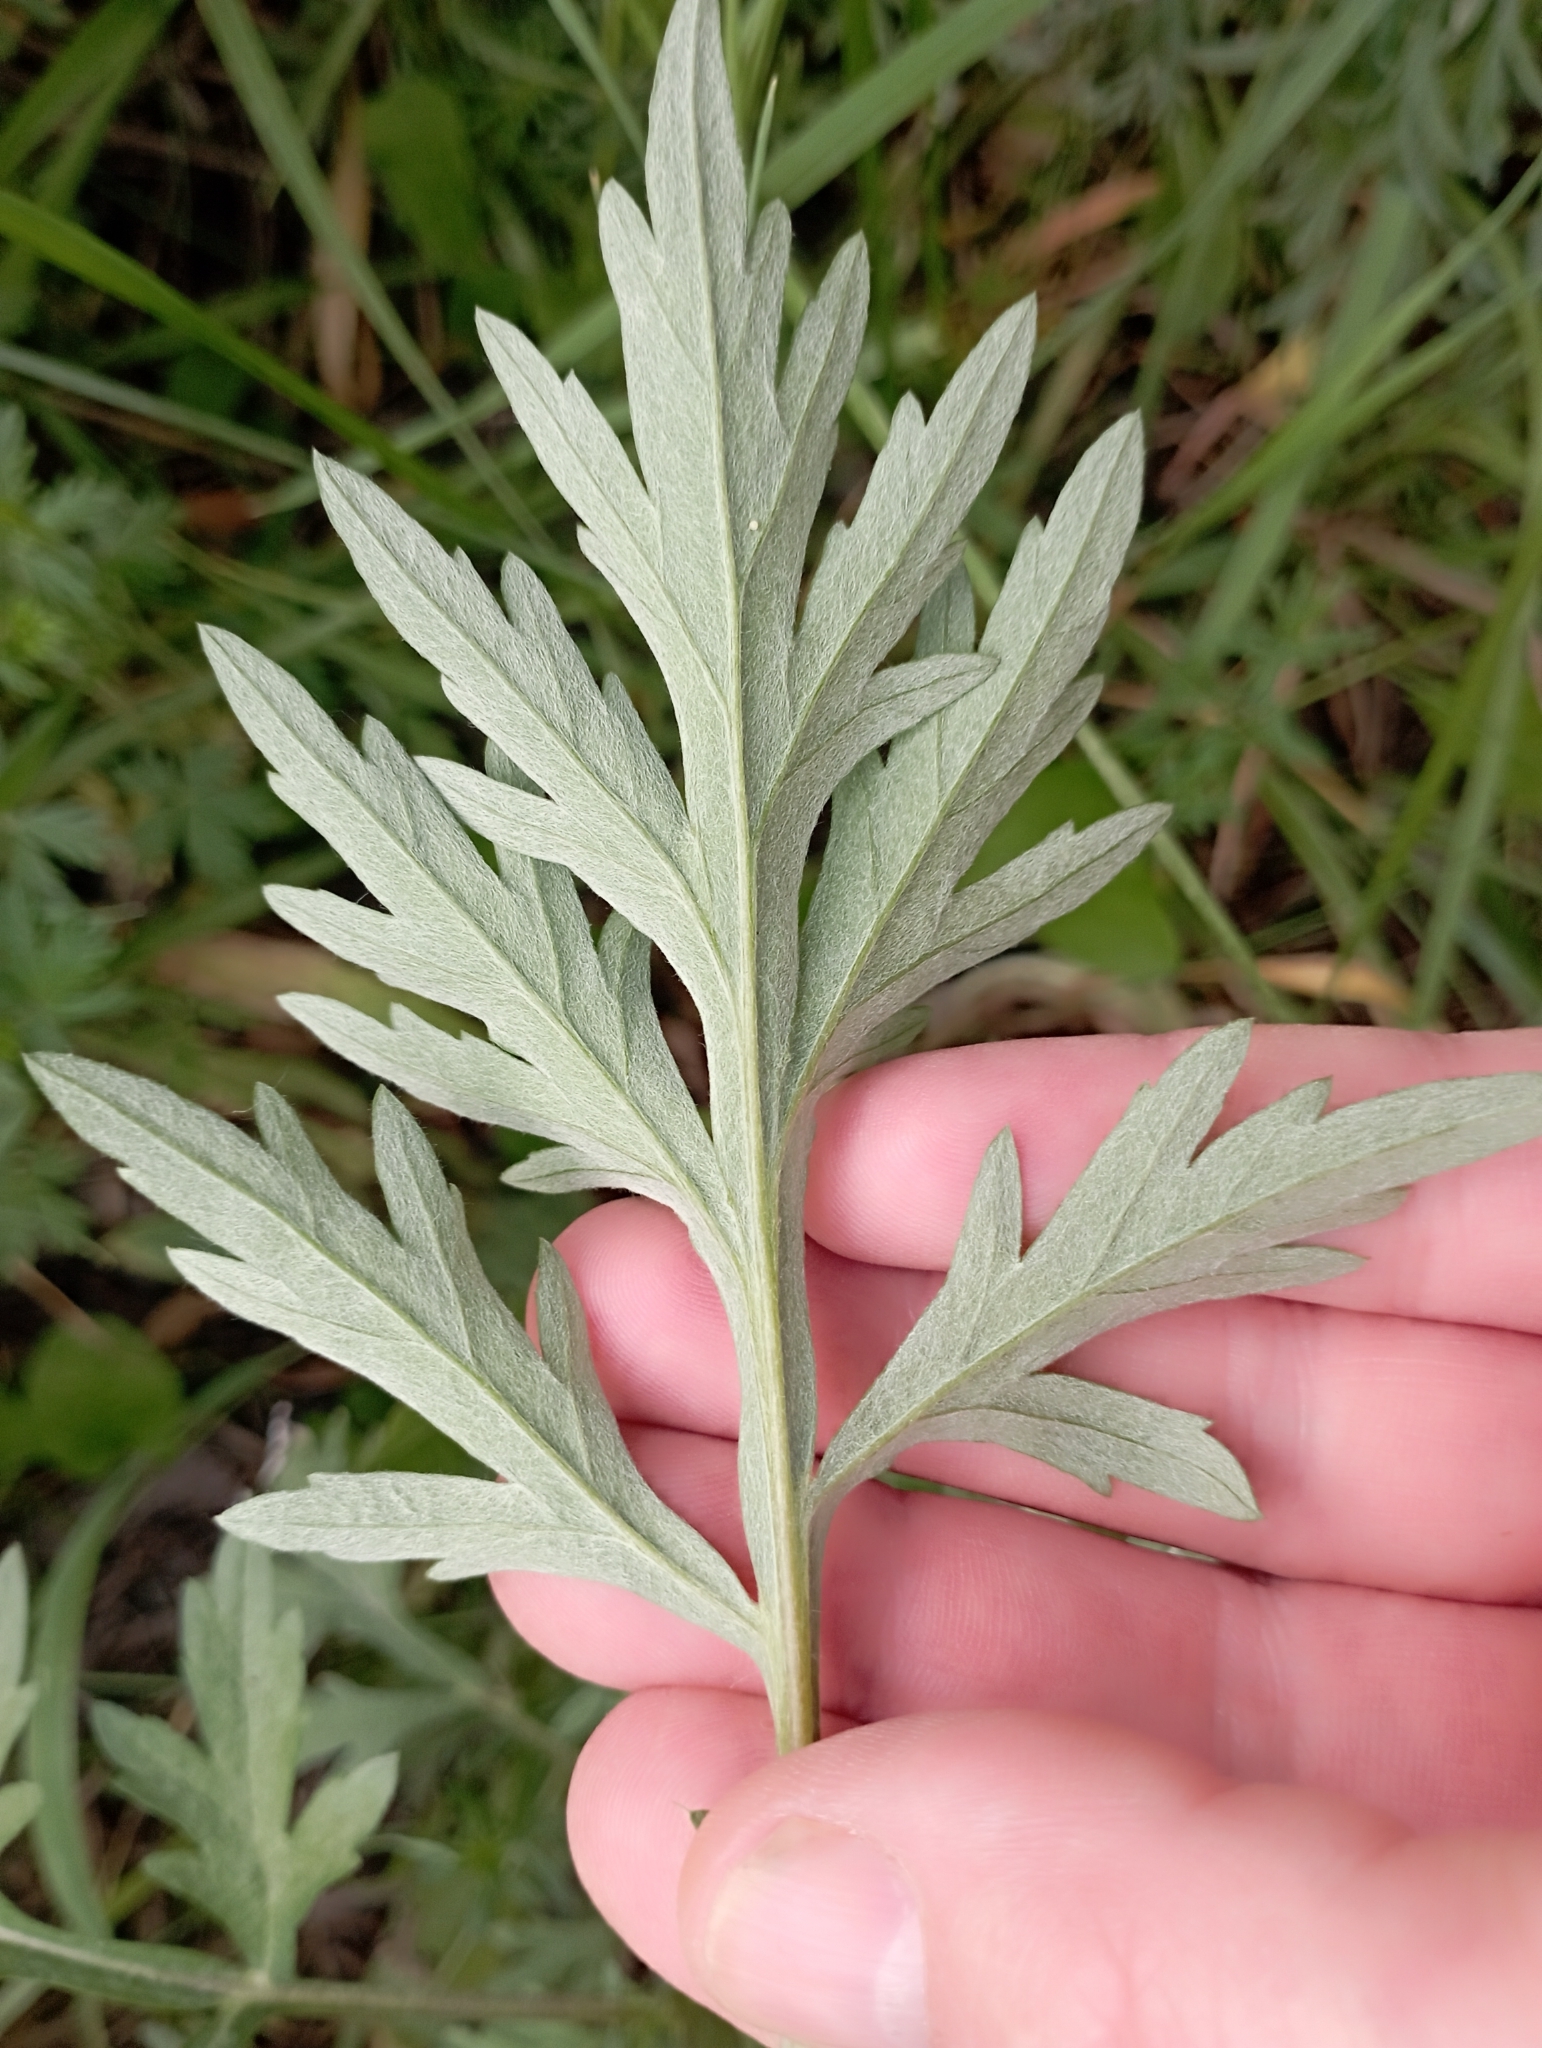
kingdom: Plantae
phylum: Tracheophyta
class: Magnoliopsida
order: Asterales
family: Asteraceae
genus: Artemisia
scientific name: Artemisia vulgaris
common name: Mugwort
